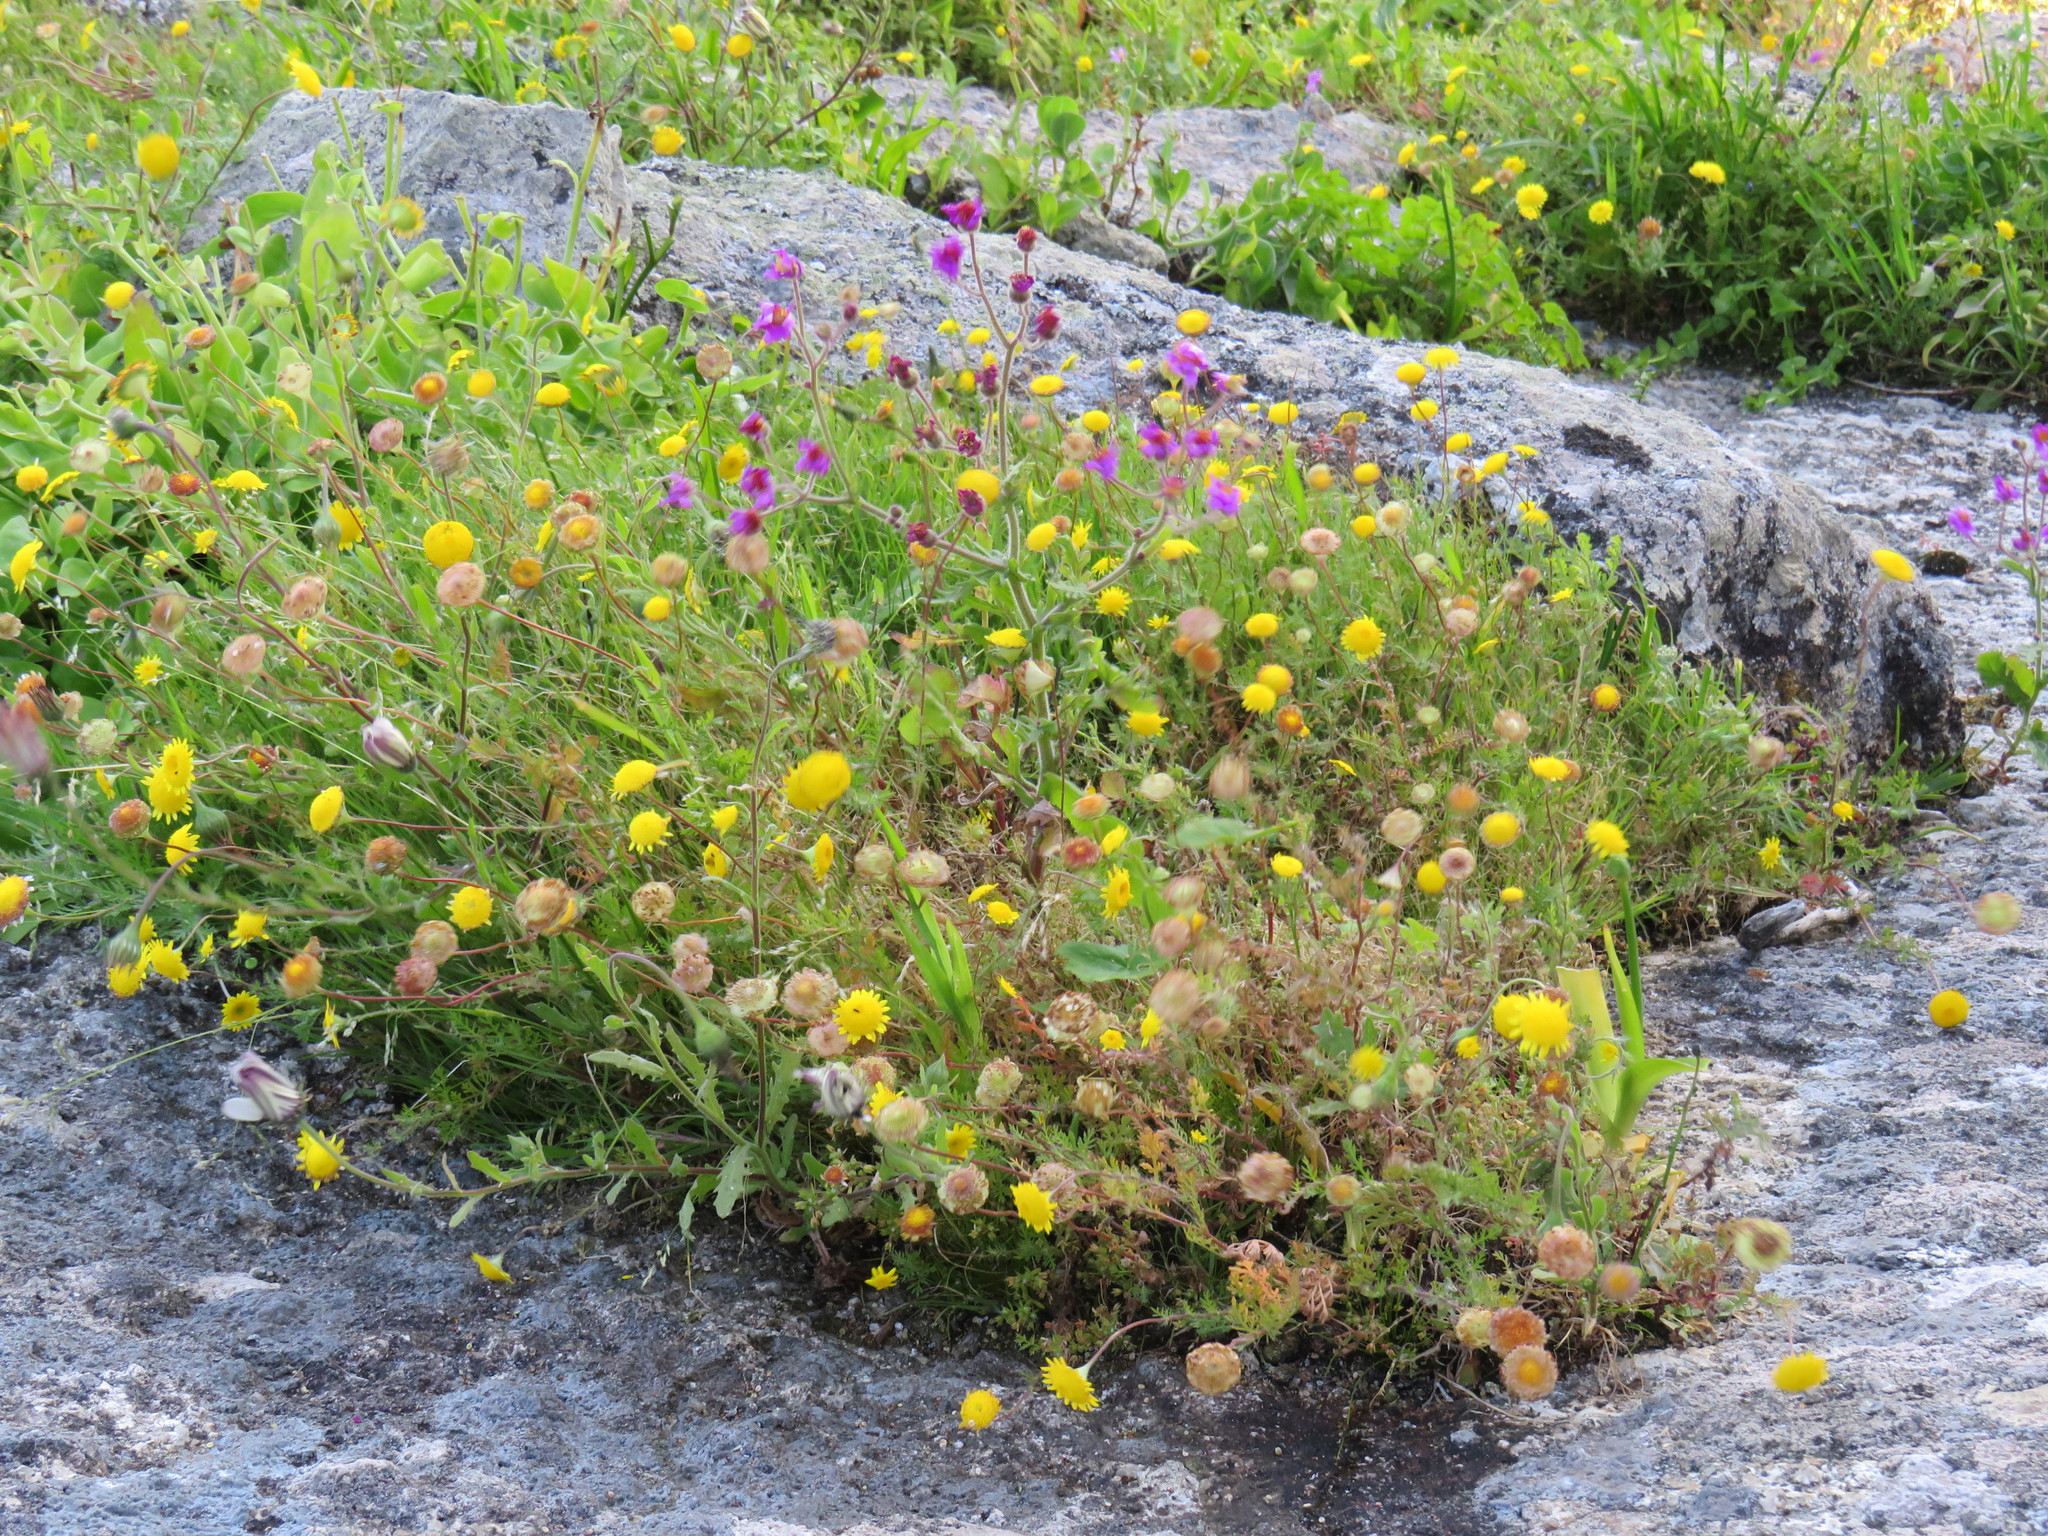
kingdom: Plantae
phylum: Tracheophyta
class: Magnoliopsida
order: Asterales
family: Asteraceae
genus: Senecio
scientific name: Senecio arenarius
